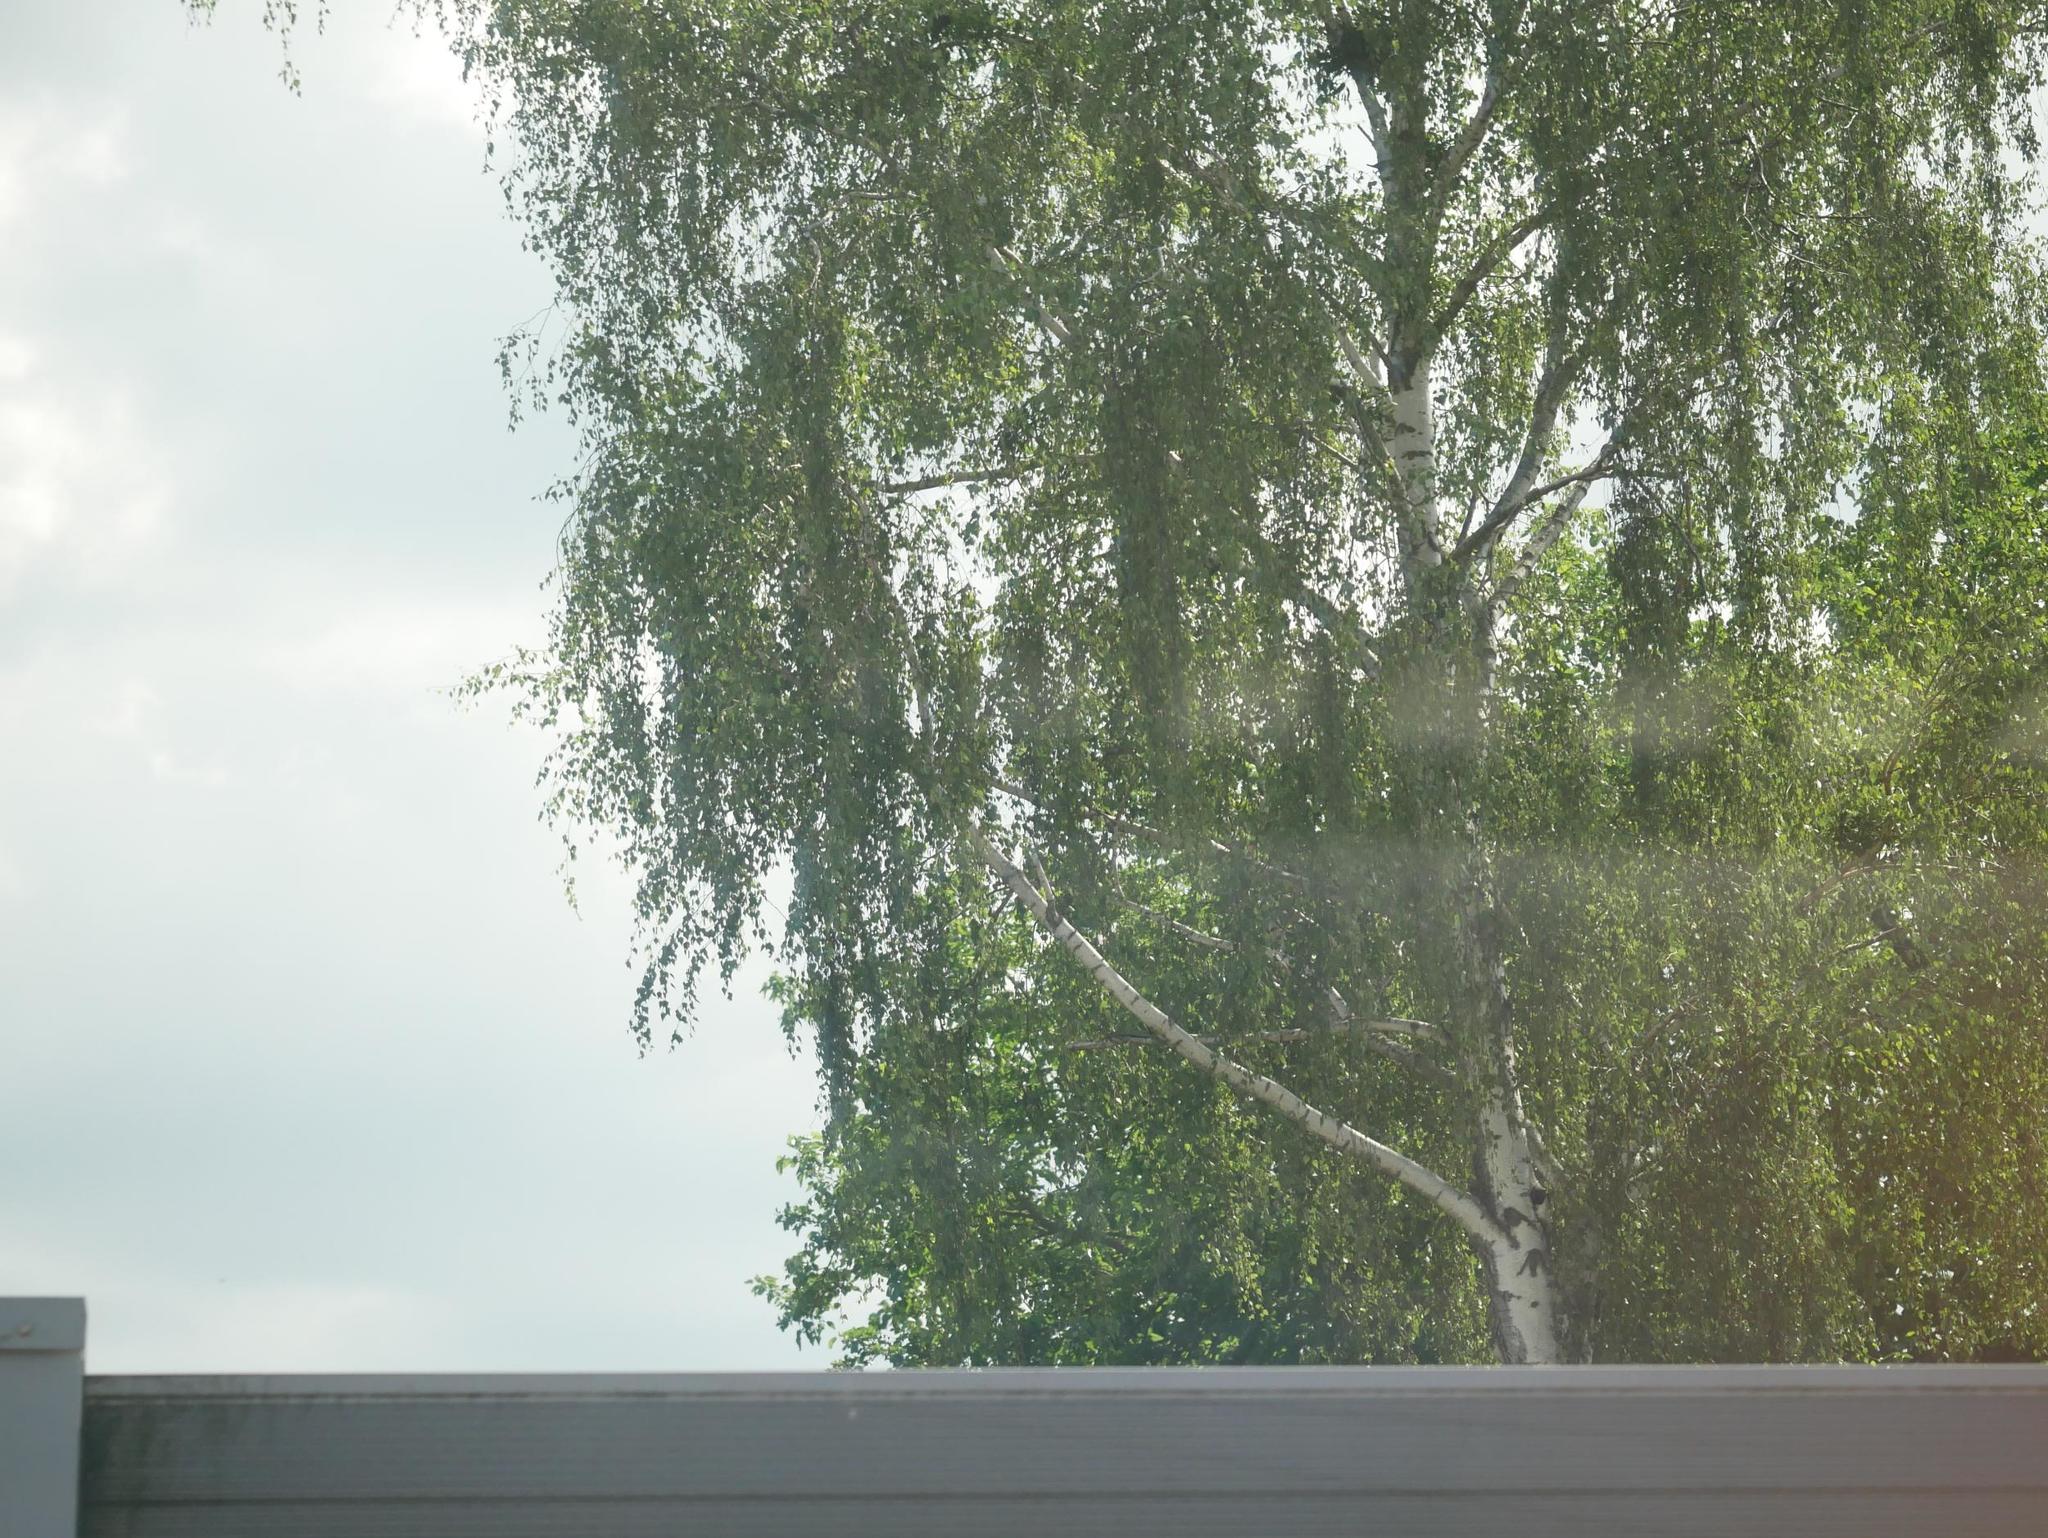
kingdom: Plantae
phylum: Tracheophyta
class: Magnoliopsida
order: Fagales
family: Betulaceae
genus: Betula
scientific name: Betula pendula
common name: Silver birch
